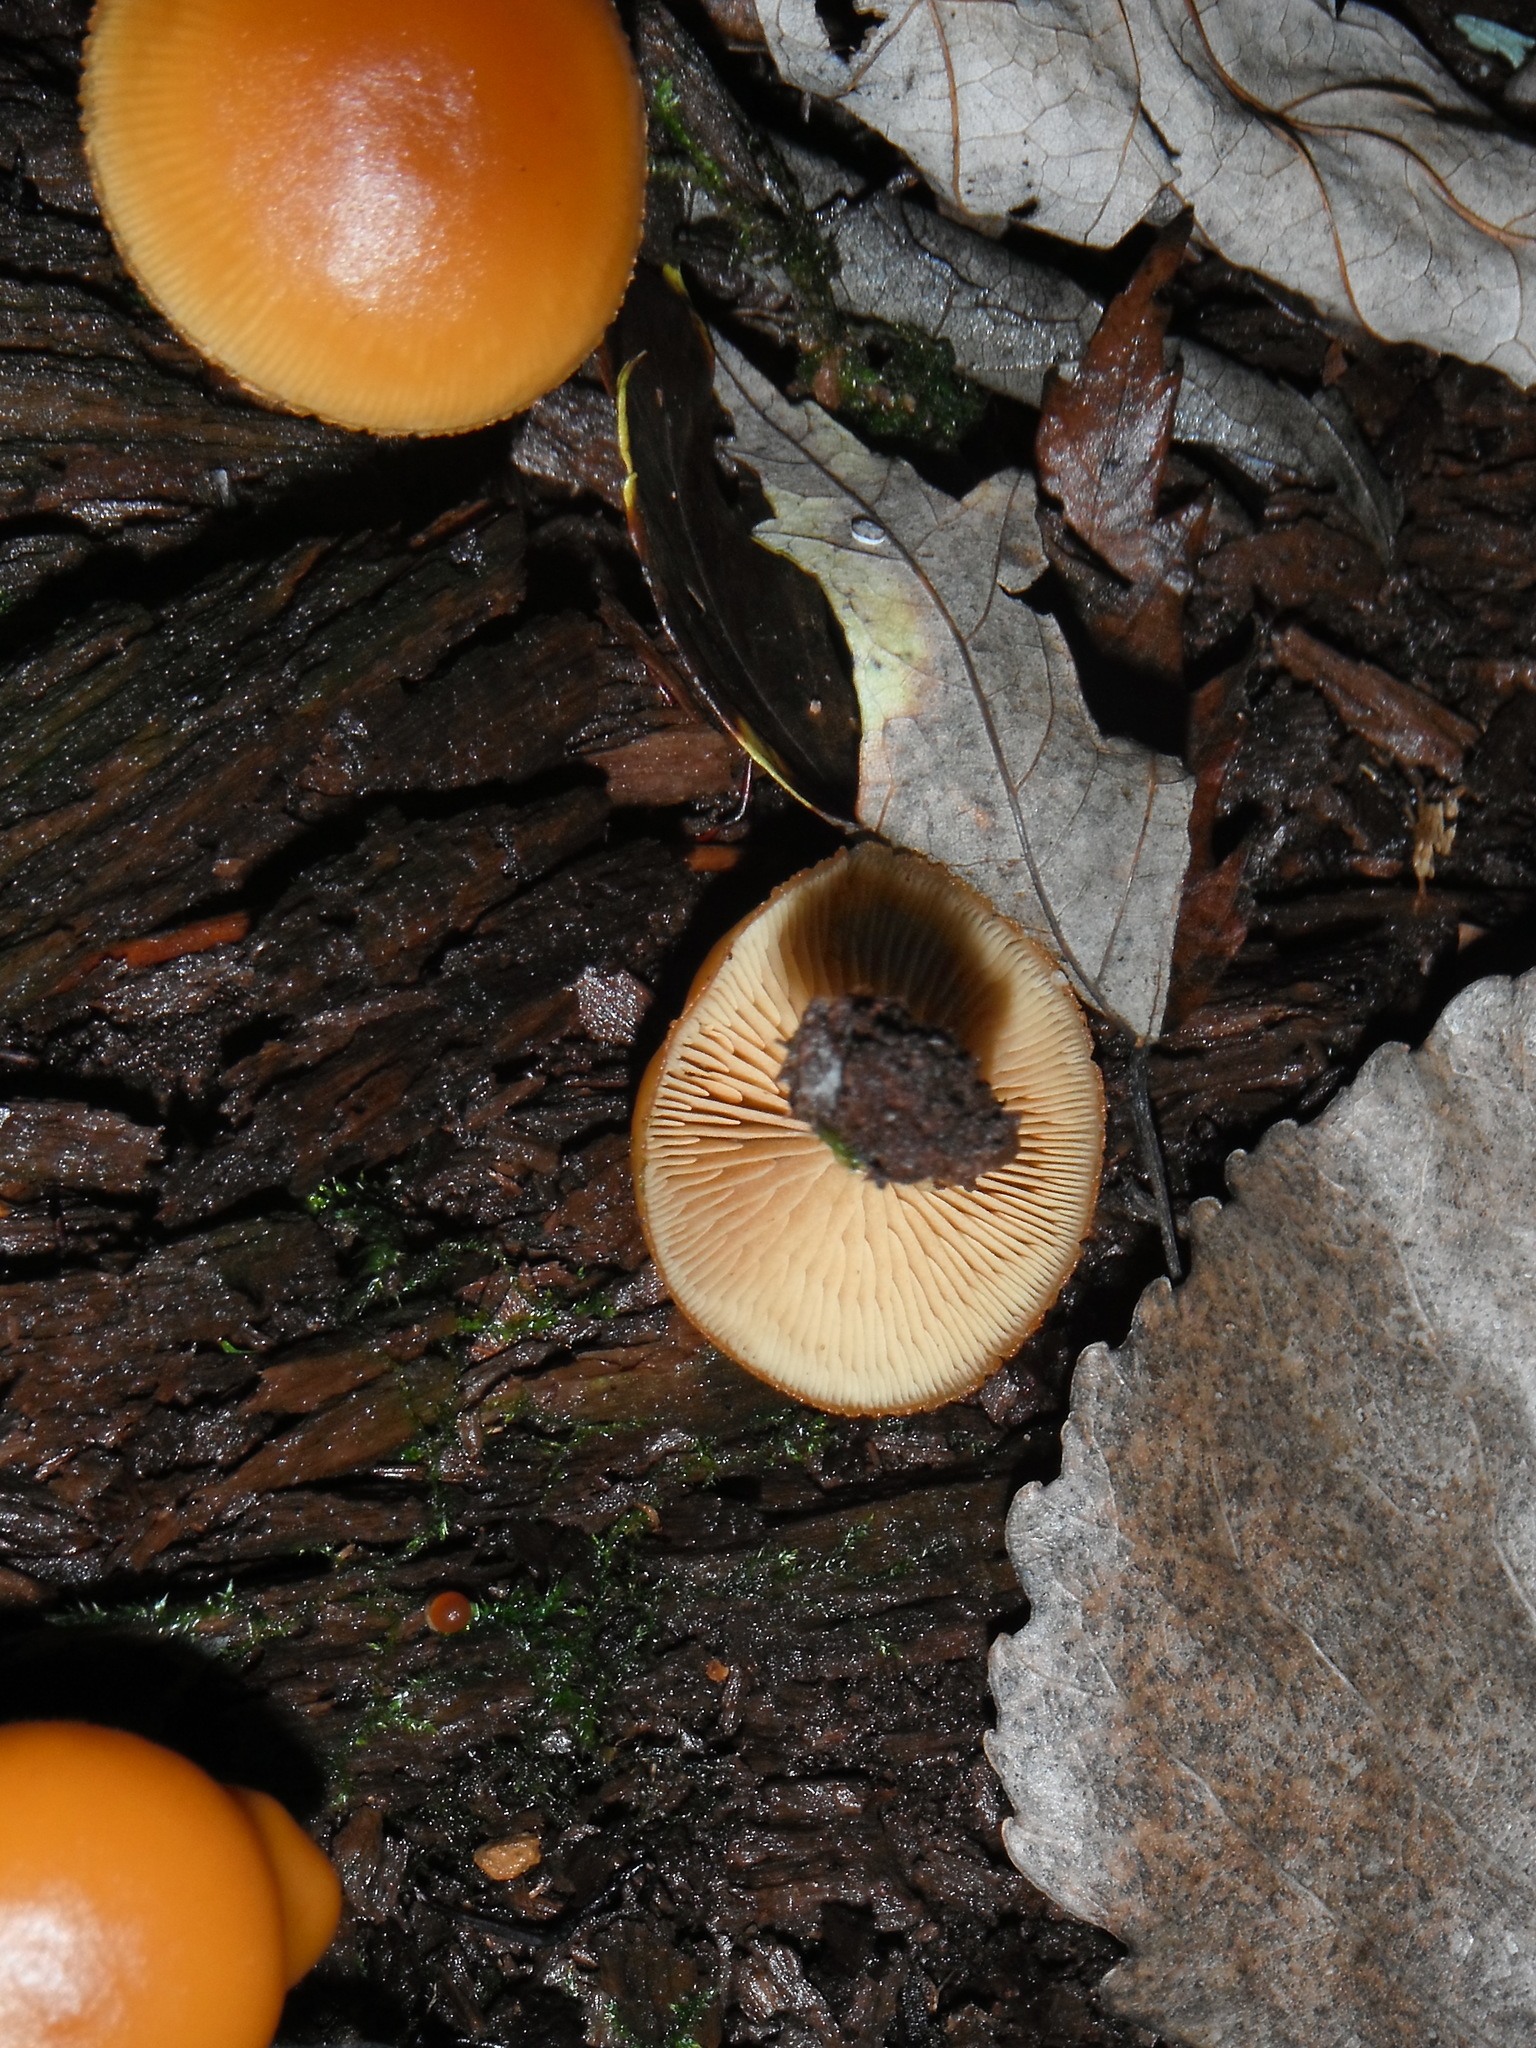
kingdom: Fungi
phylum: Basidiomycota
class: Agaricomycetes
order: Agaricales
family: Hymenogastraceae
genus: Galerina
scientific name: Galerina marginata
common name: Funeral bell
